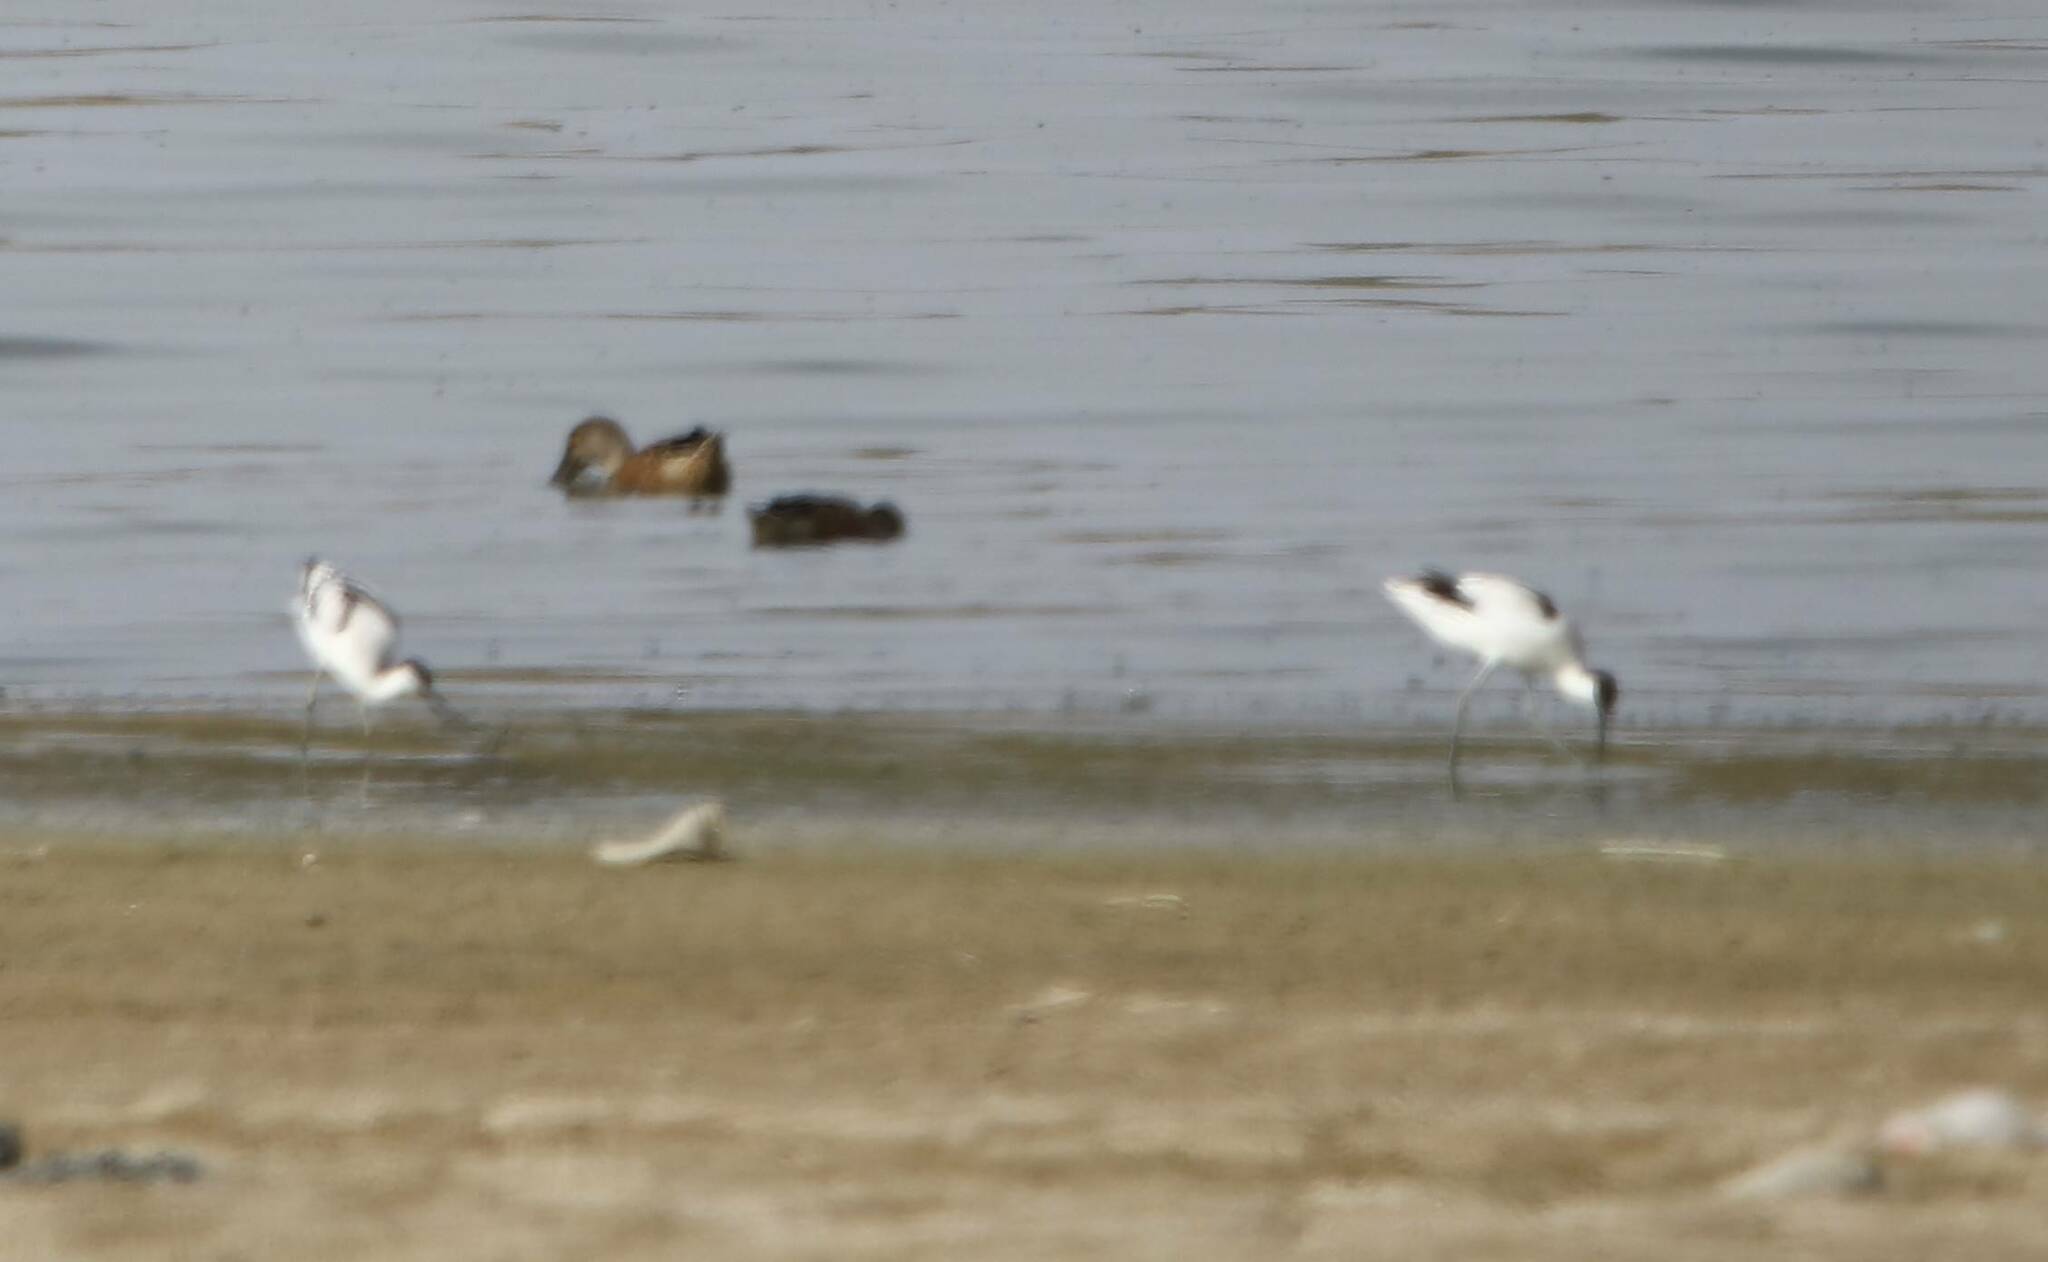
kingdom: Animalia
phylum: Chordata
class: Aves
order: Charadriiformes
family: Recurvirostridae
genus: Recurvirostra
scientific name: Recurvirostra avosetta
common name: Pied avocet
